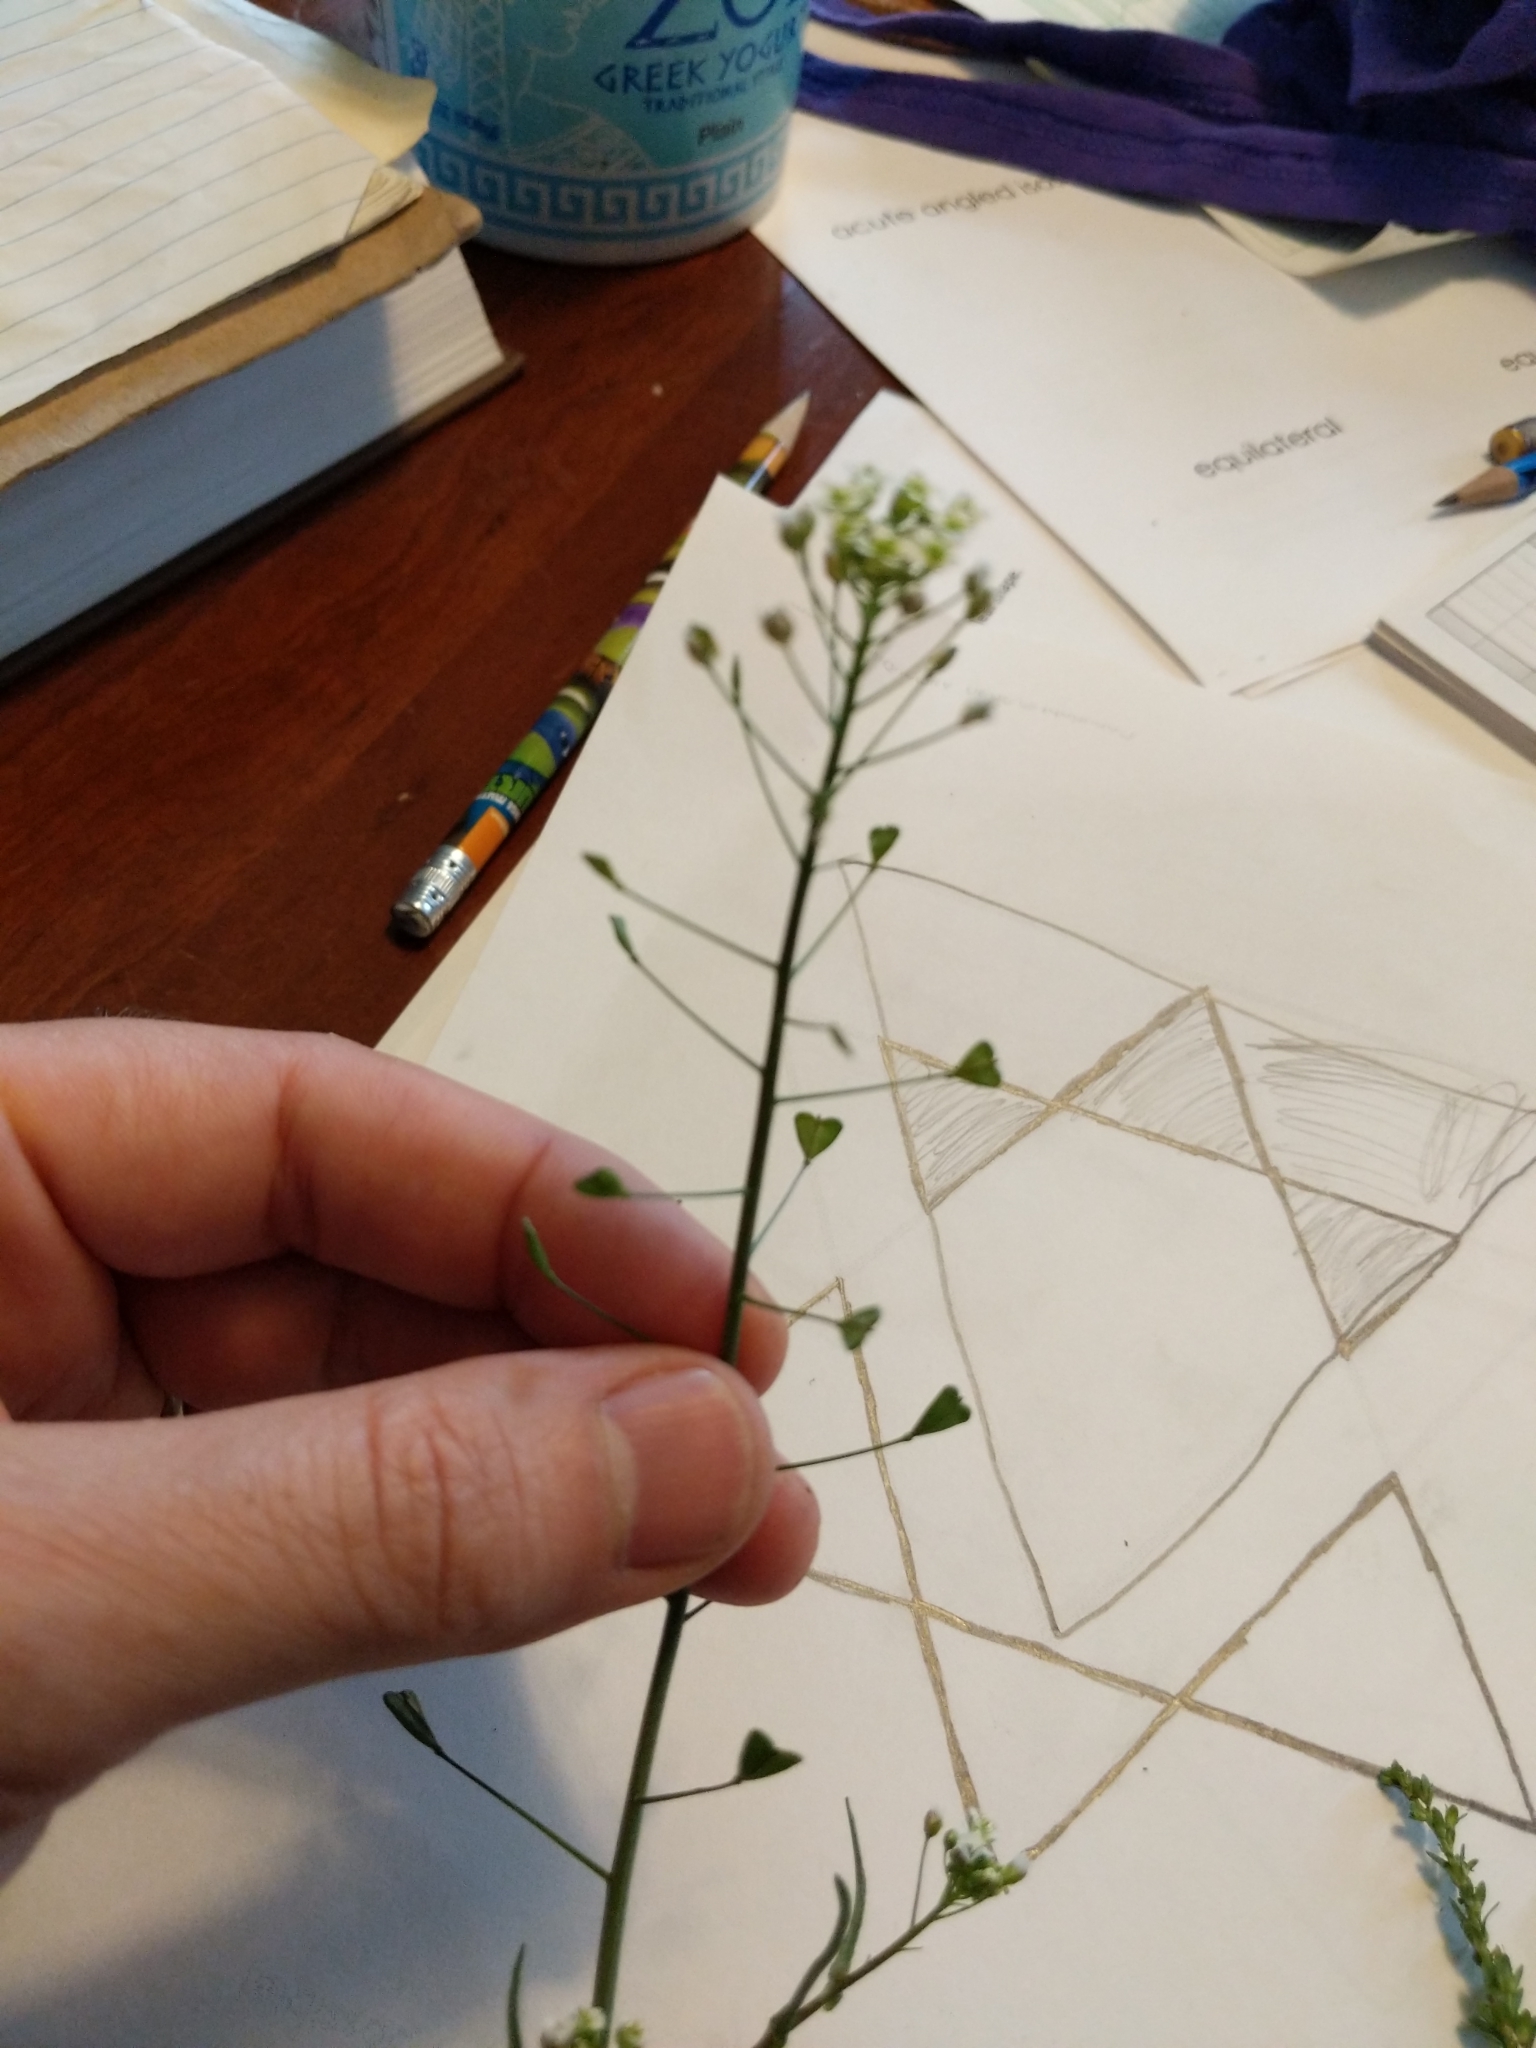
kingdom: Plantae
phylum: Tracheophyta
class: Magnoliopsida
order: Brassicales
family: Brassicaceae
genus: Capsella
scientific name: Capsella bursa-pastoris
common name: Shepherd's purse
